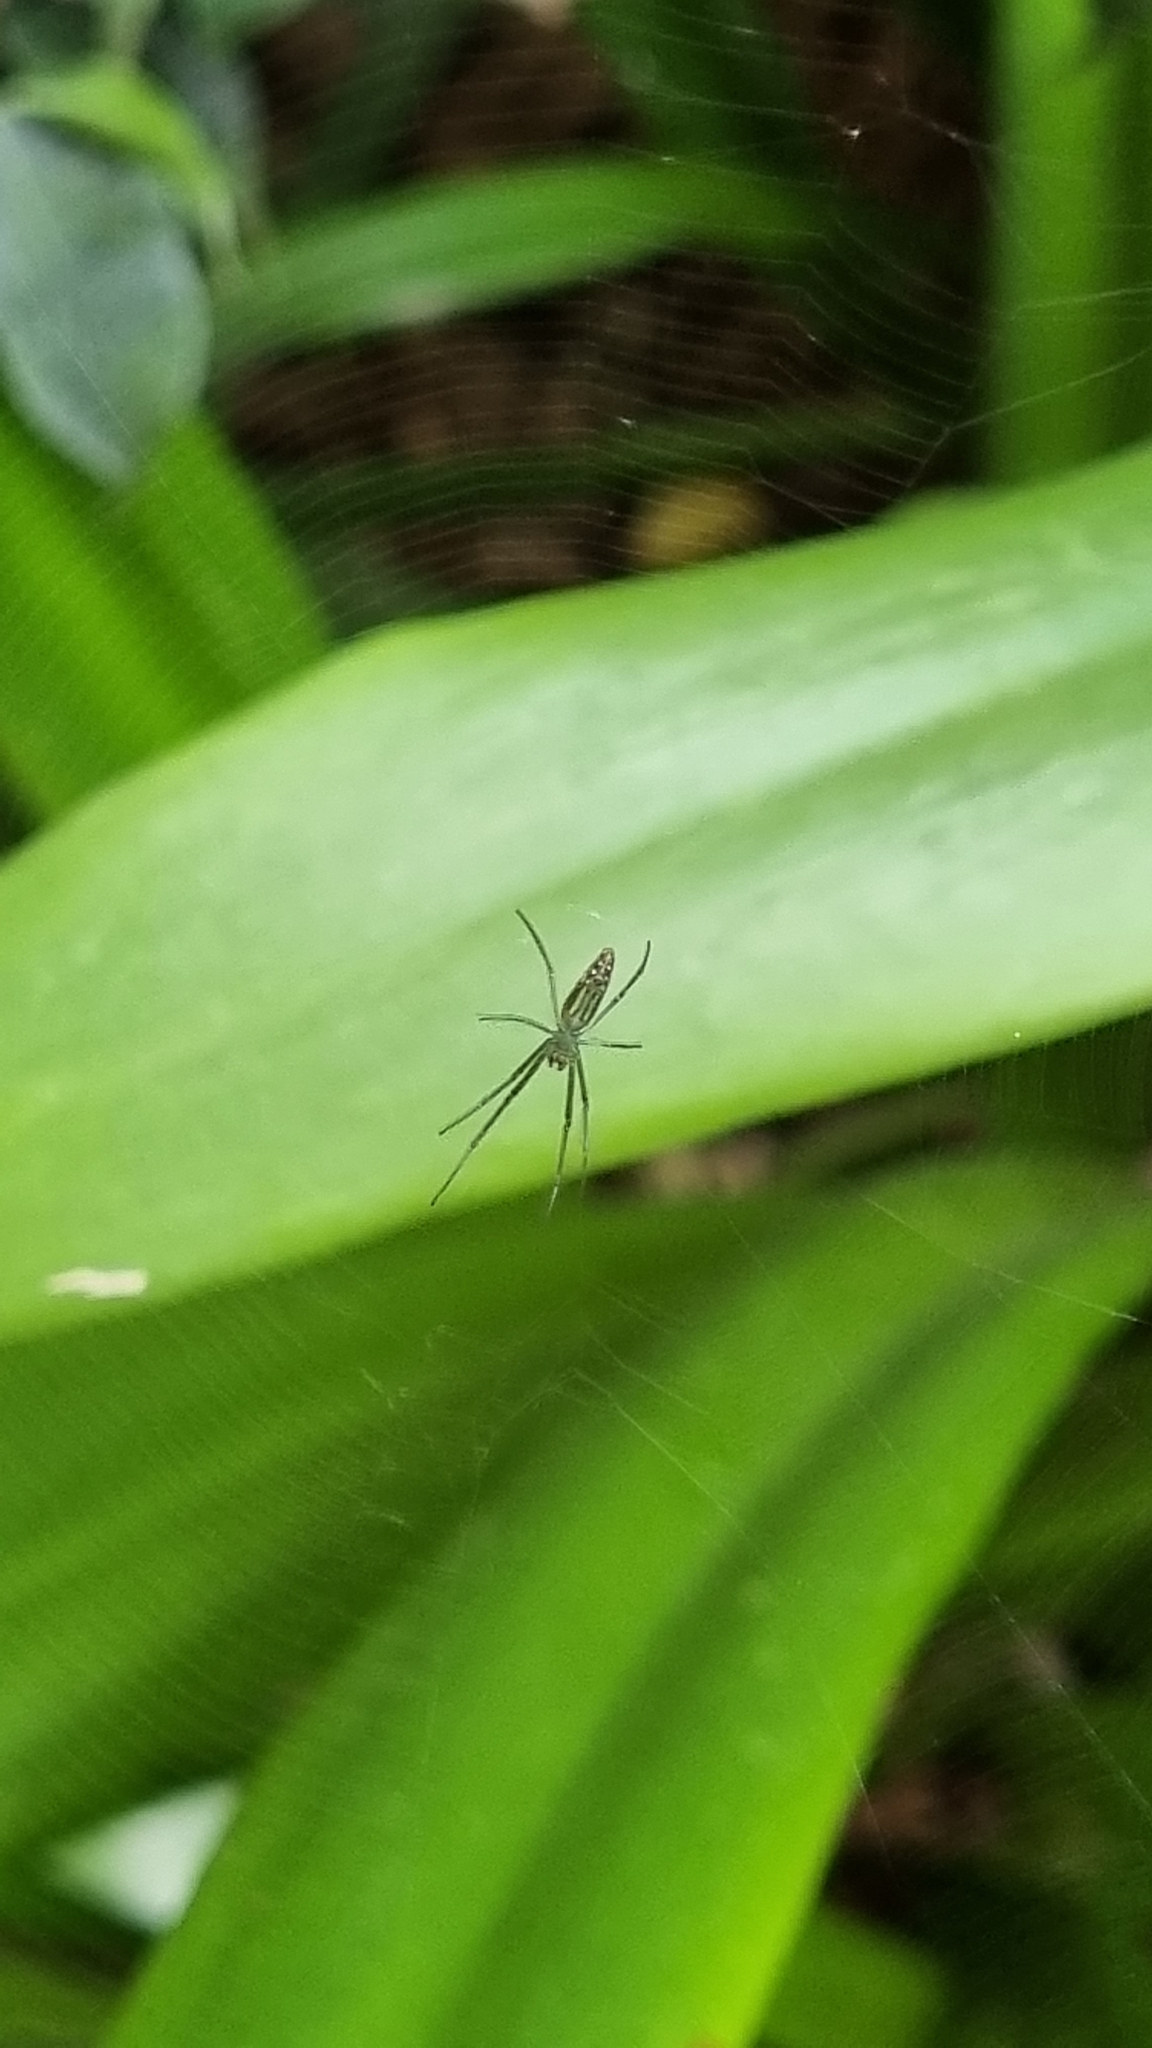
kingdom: Animalia
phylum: Arthropoda
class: Arachnida
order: Araneae
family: Tetragnathidae
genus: Leucauge
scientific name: Leucauge decorata
